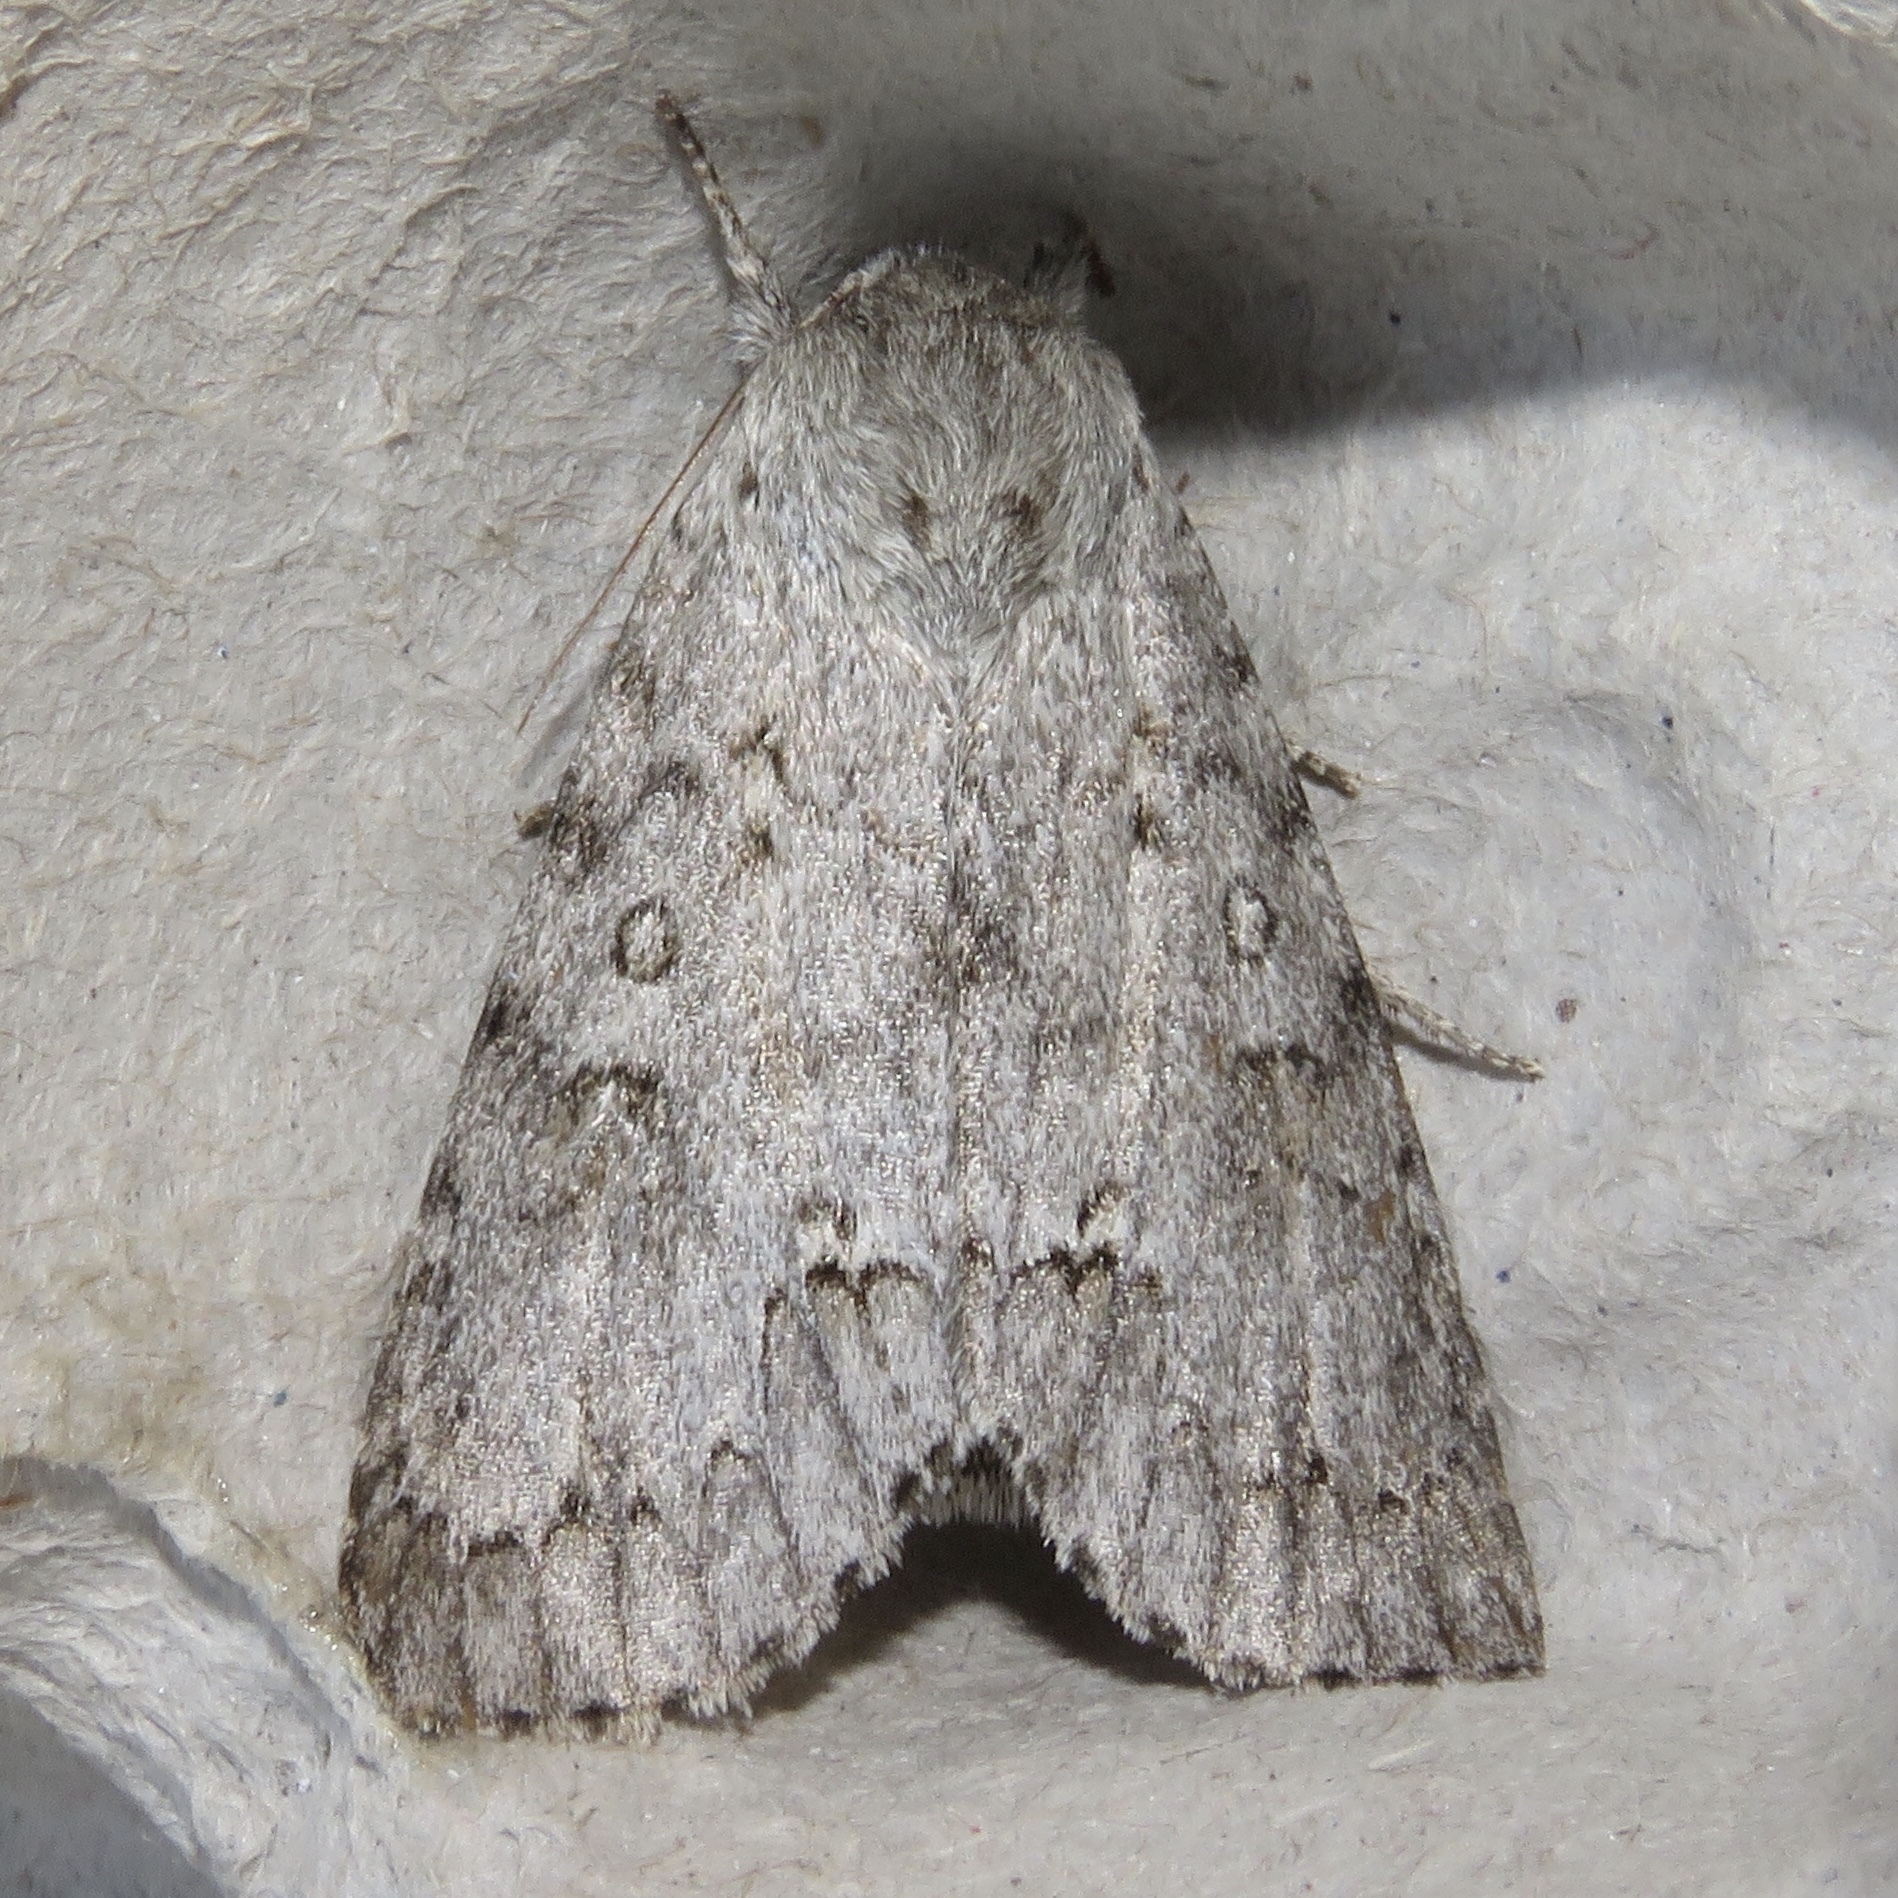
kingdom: Animalia
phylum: Arthropoda
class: Insecta
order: Lepidoptera
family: Noctuidae
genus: Acronicta
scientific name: Acronicta insita
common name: Large gray dagger
